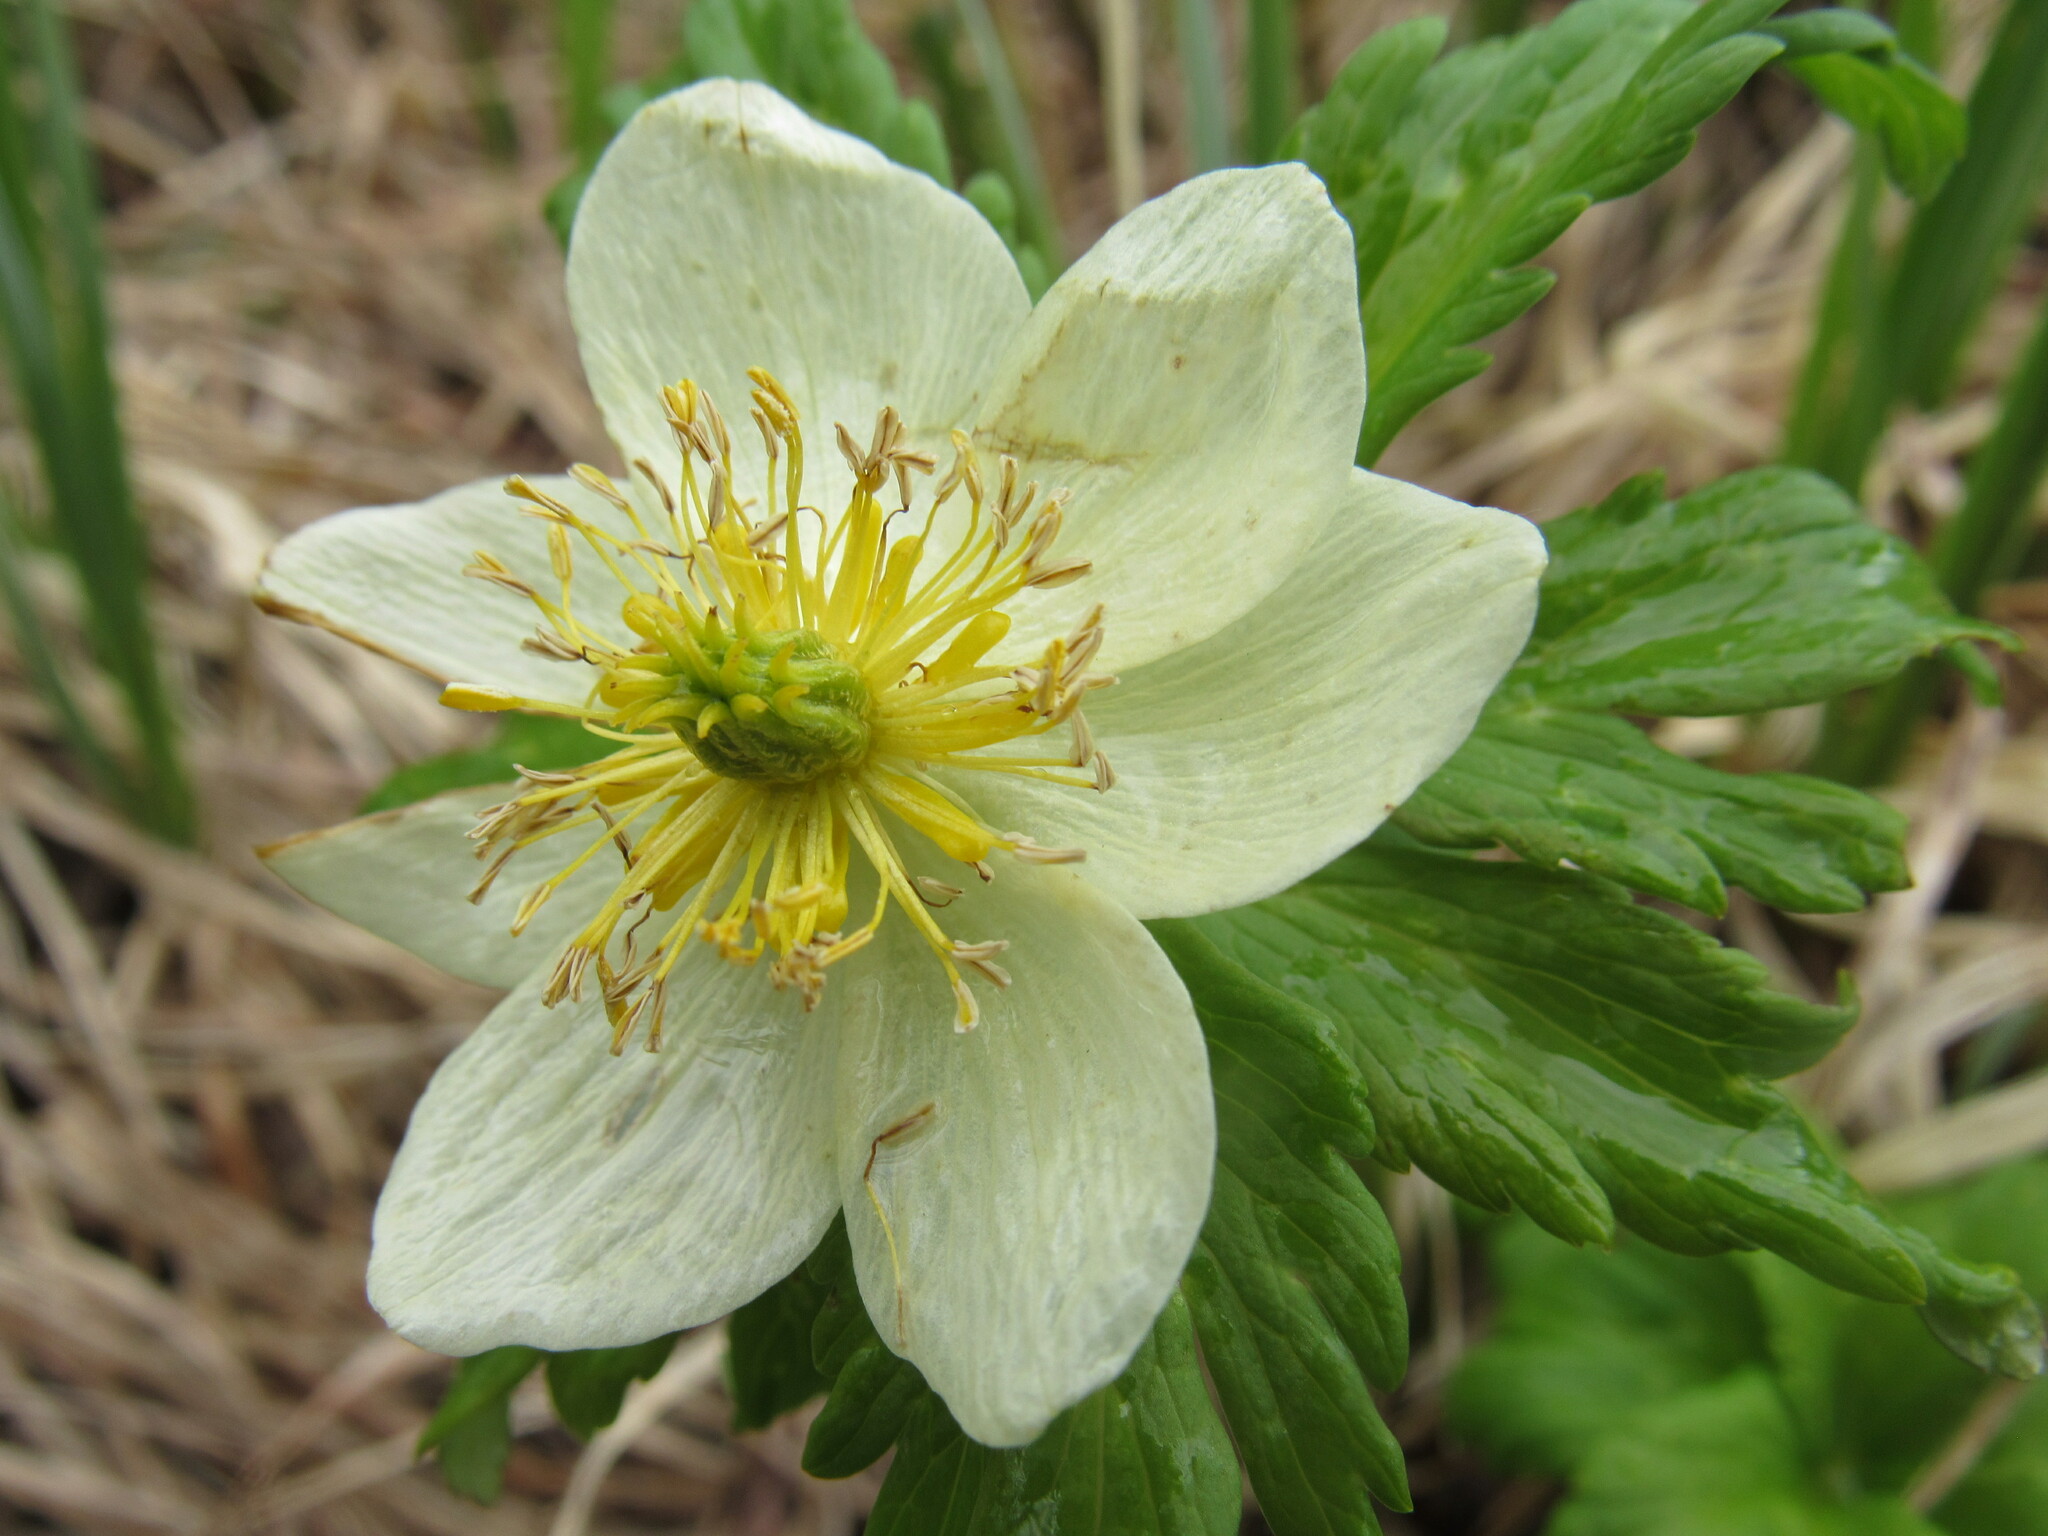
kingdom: Plantae
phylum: Tracheophyta
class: Magnoliopsida
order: Ranunculales
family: Ranunculaceae
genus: Trollius
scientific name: Trollius laxus
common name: American globeflower
